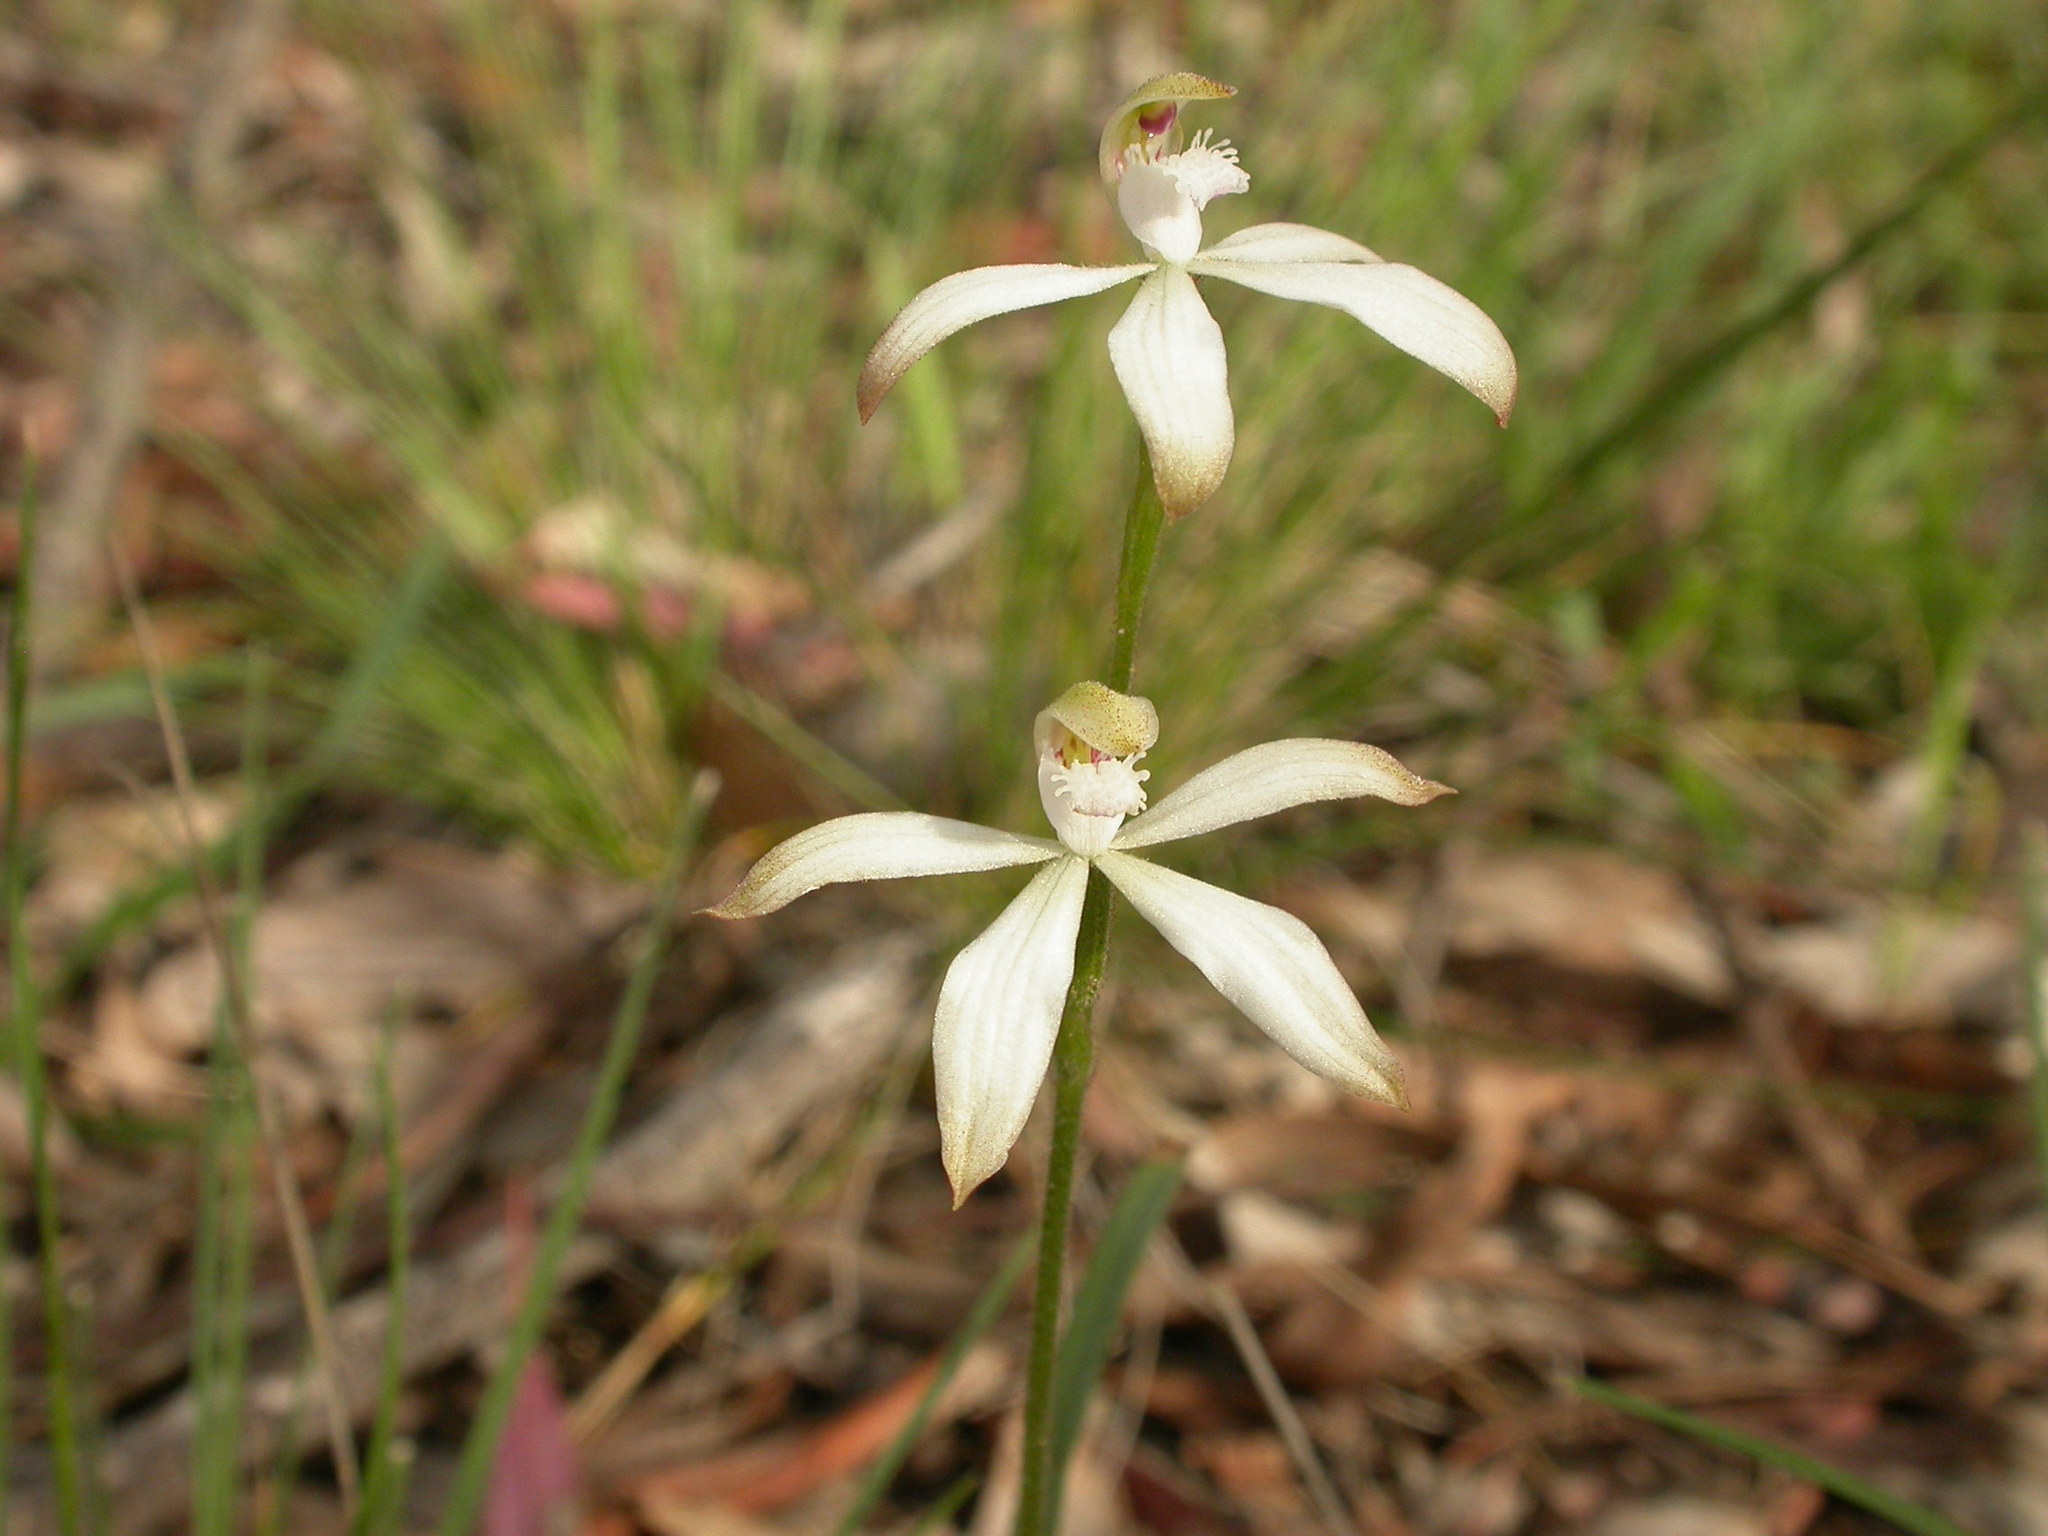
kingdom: Plantae
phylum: Tracheophyta
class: Liliopsida
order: Asparagales
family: Orchidaceae
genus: Caladenia
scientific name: Caladenia ustulata
